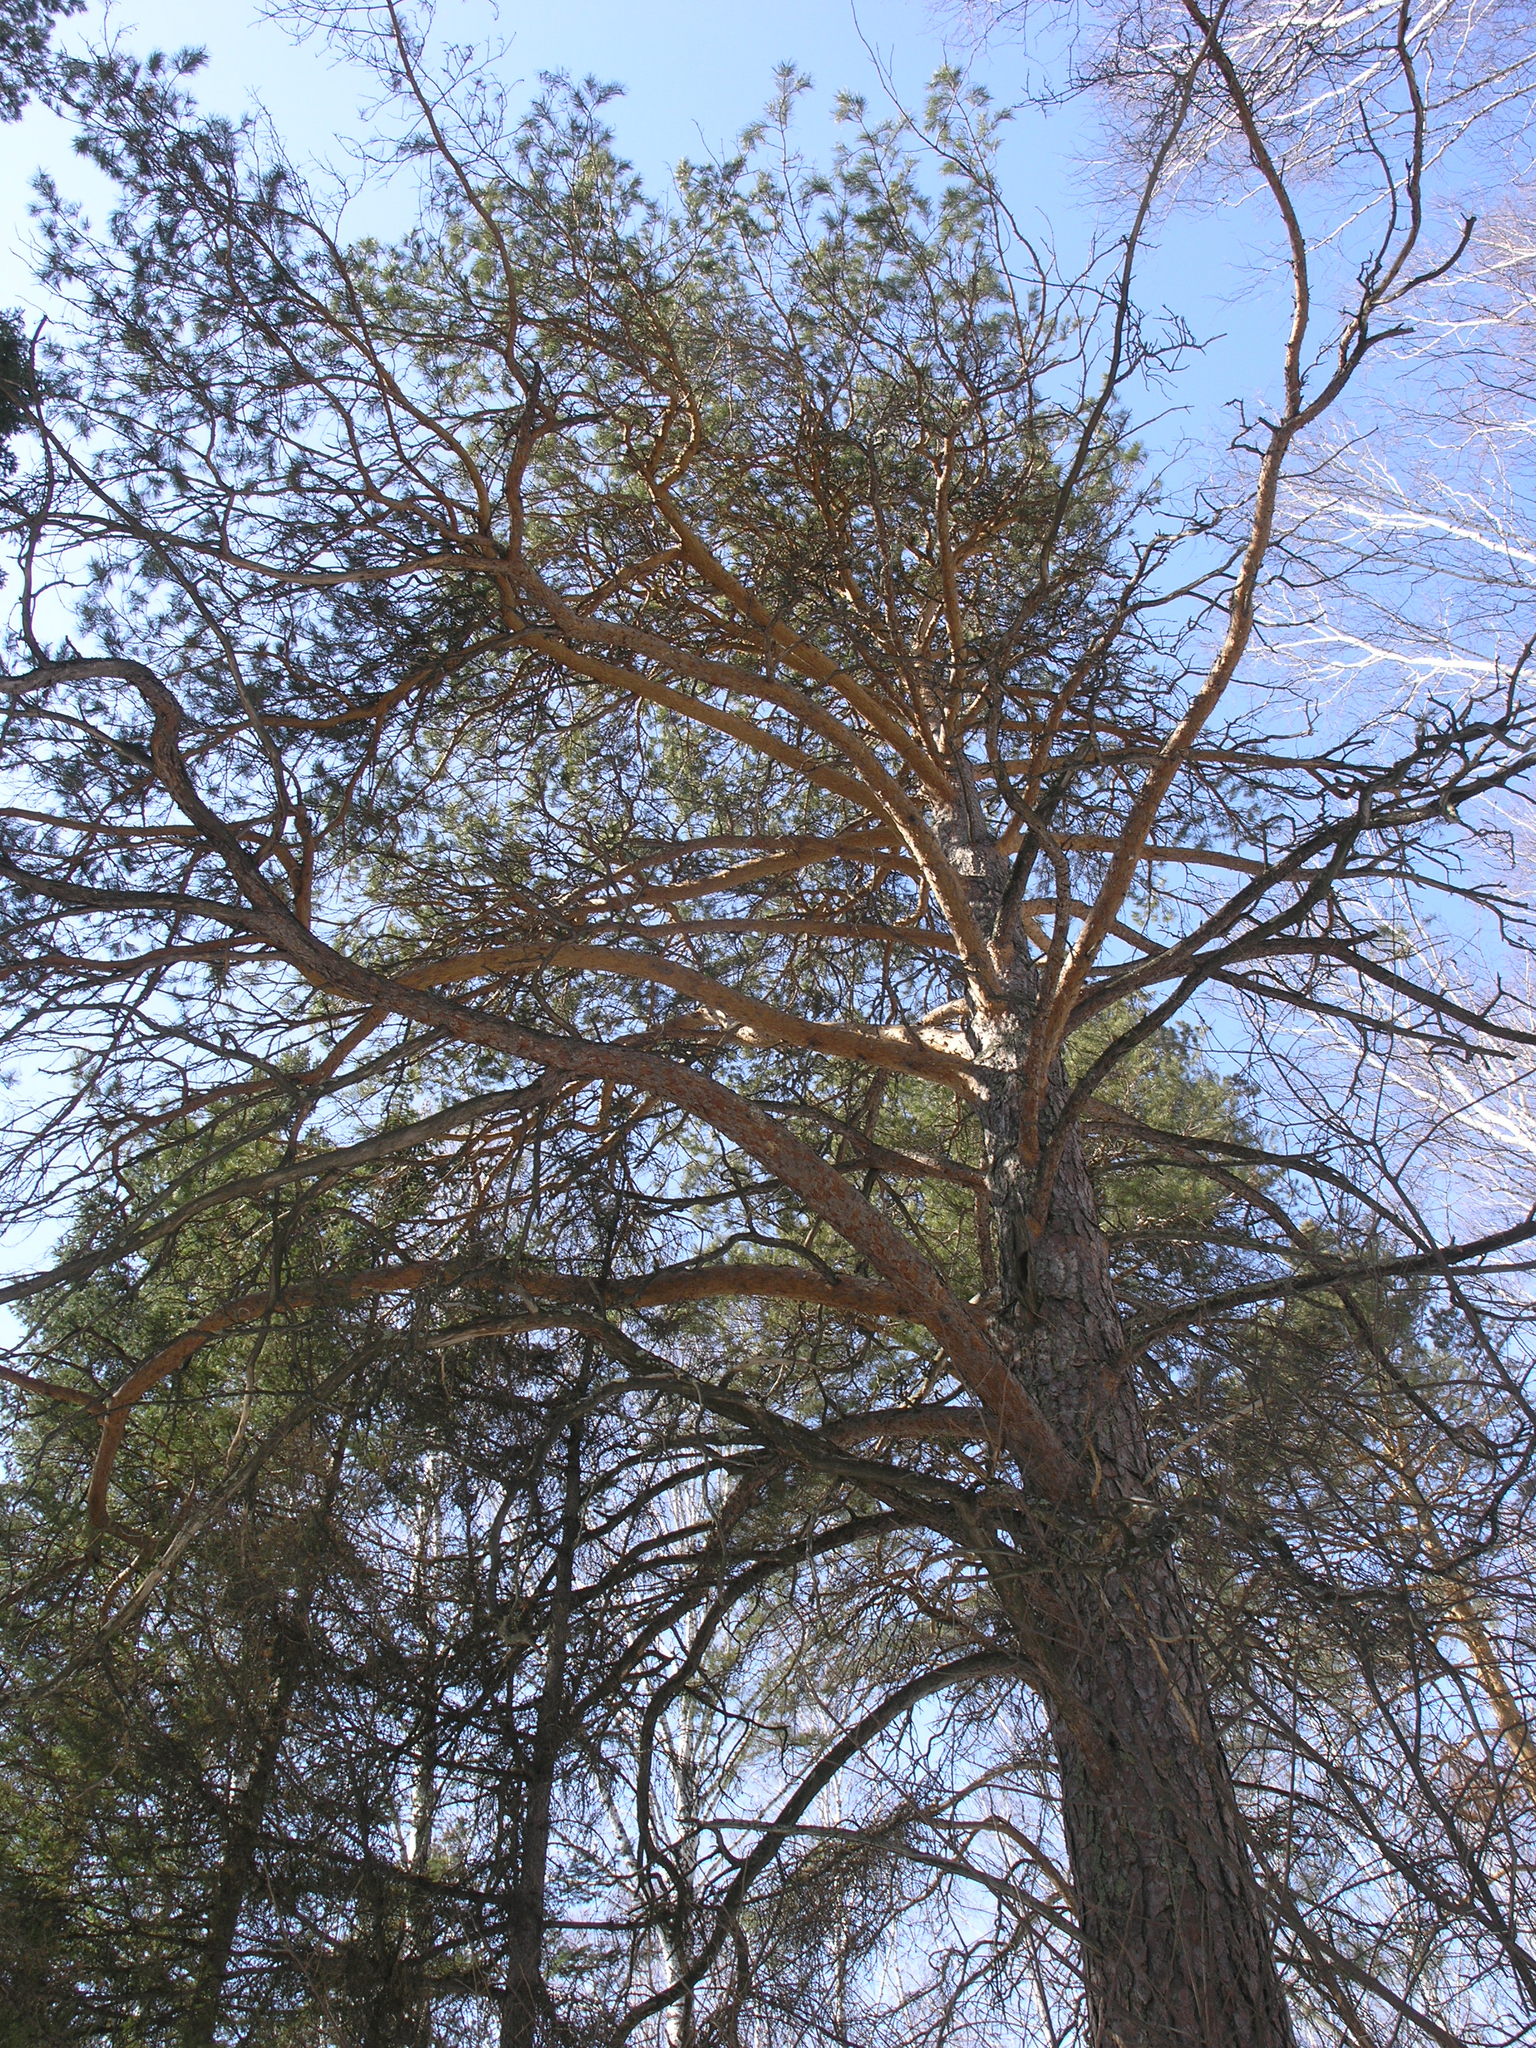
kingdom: Plantae
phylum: Tracheophyta
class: Pinopsida
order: Pinales
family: Pinaceae
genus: Pinus
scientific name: Pinus sylvestris
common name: Scots pine
